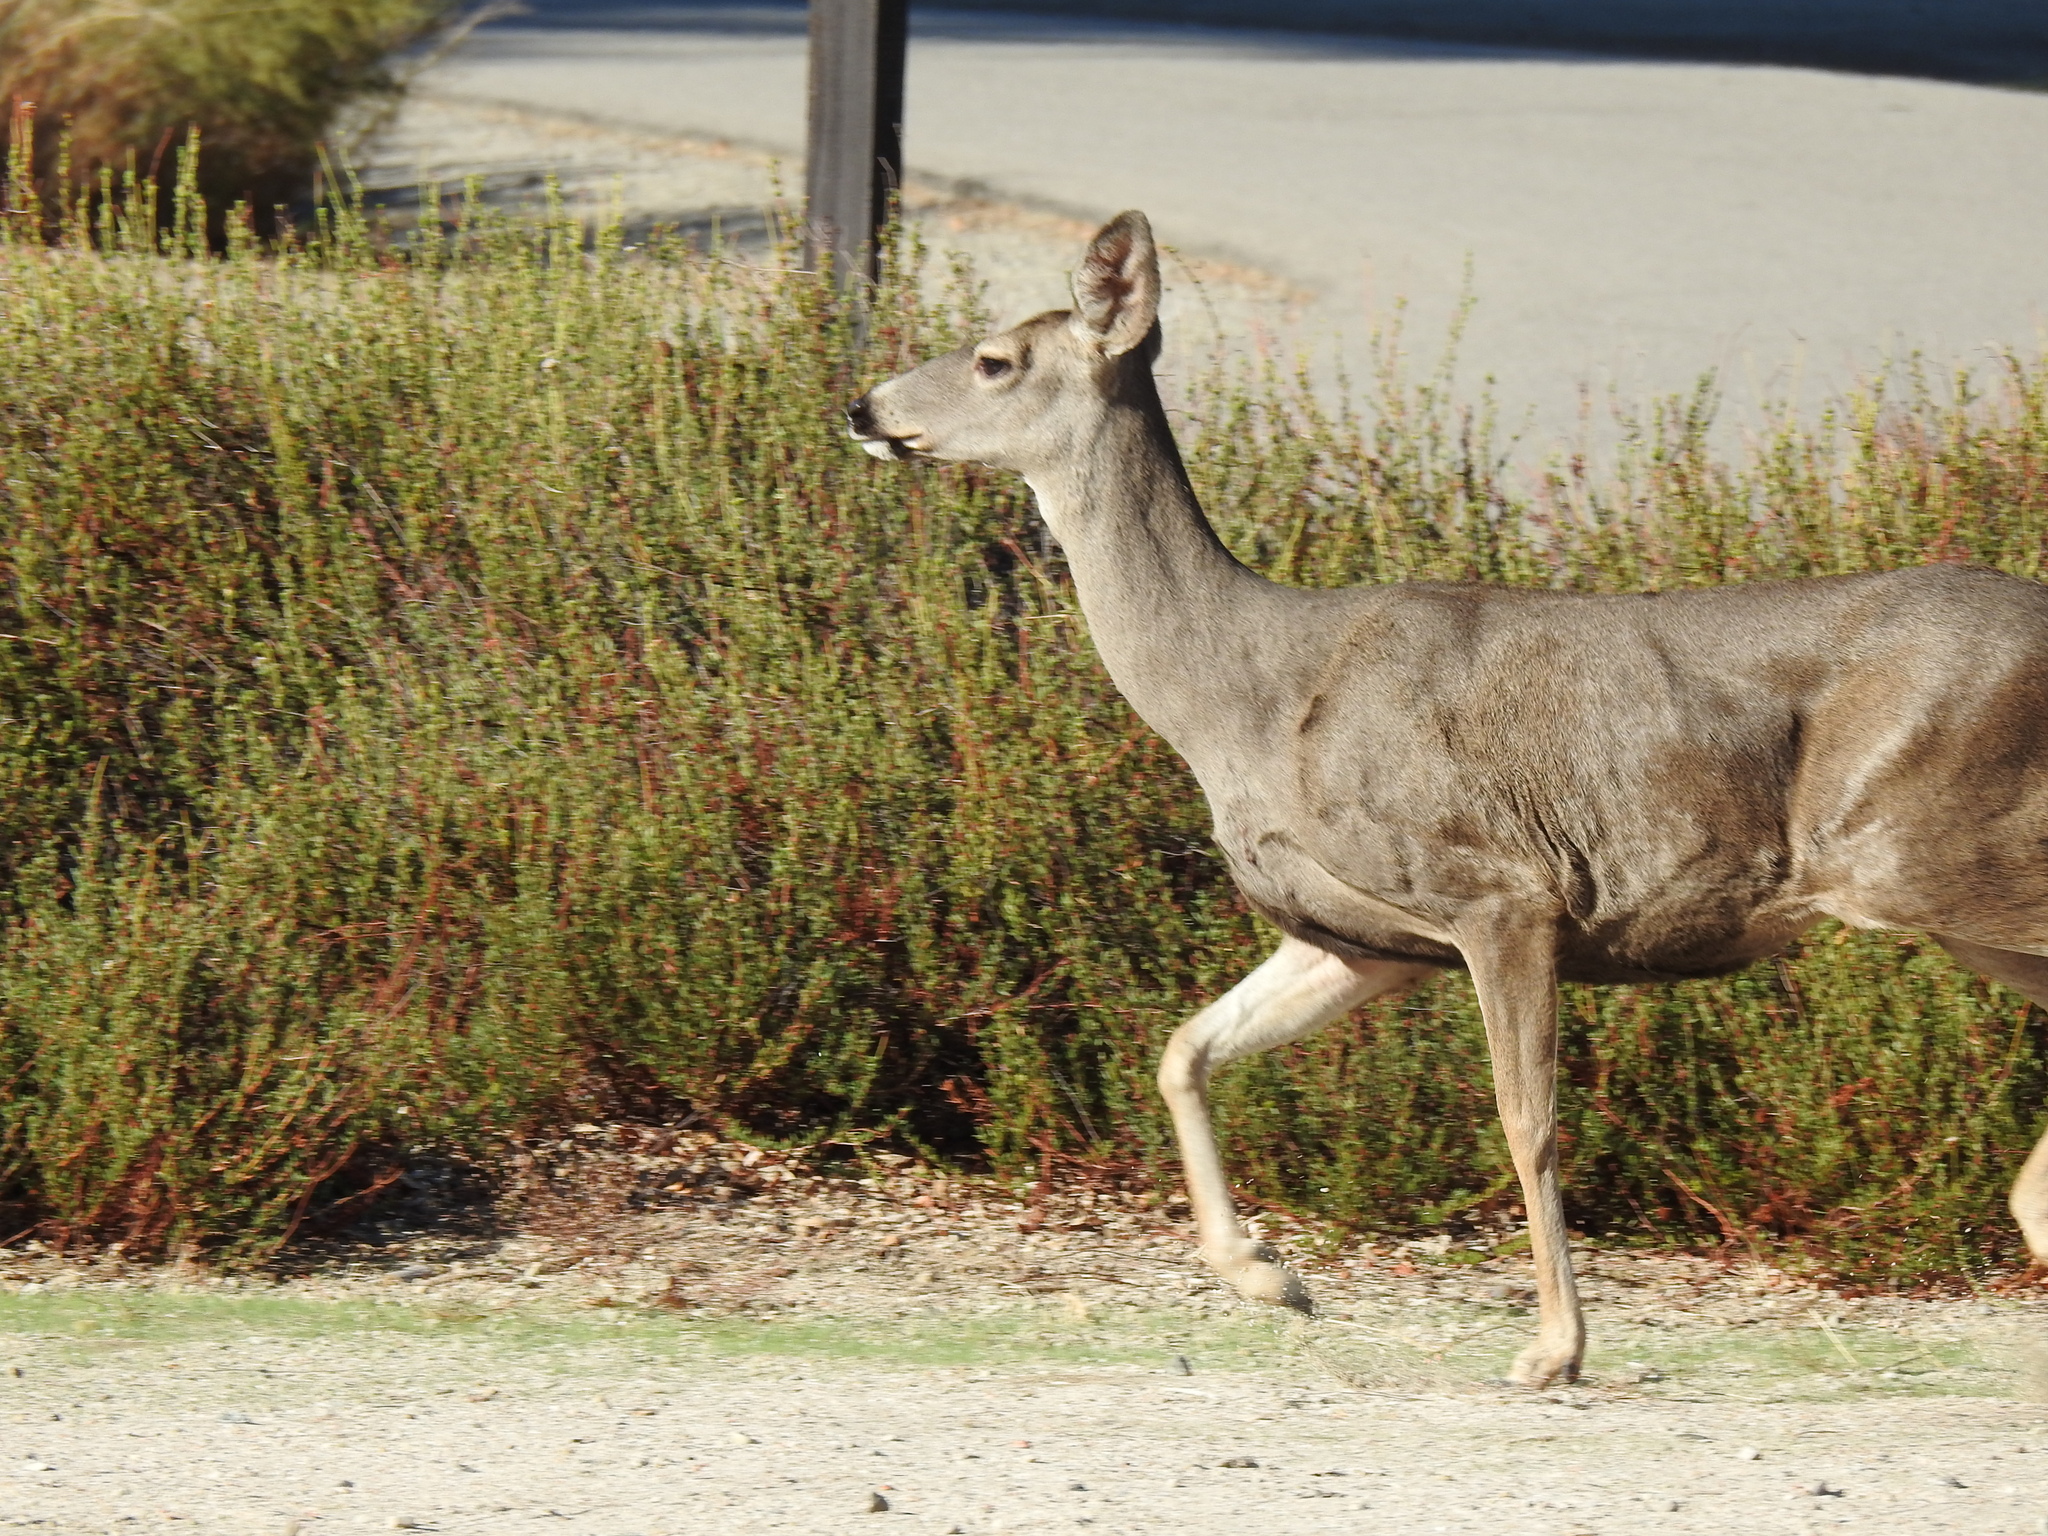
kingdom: Animalia
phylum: Chordata
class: Mammalia
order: Artiodactyla
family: Cervidae
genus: Odocoileus
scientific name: Odocoileus hemionus
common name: Mule deer
